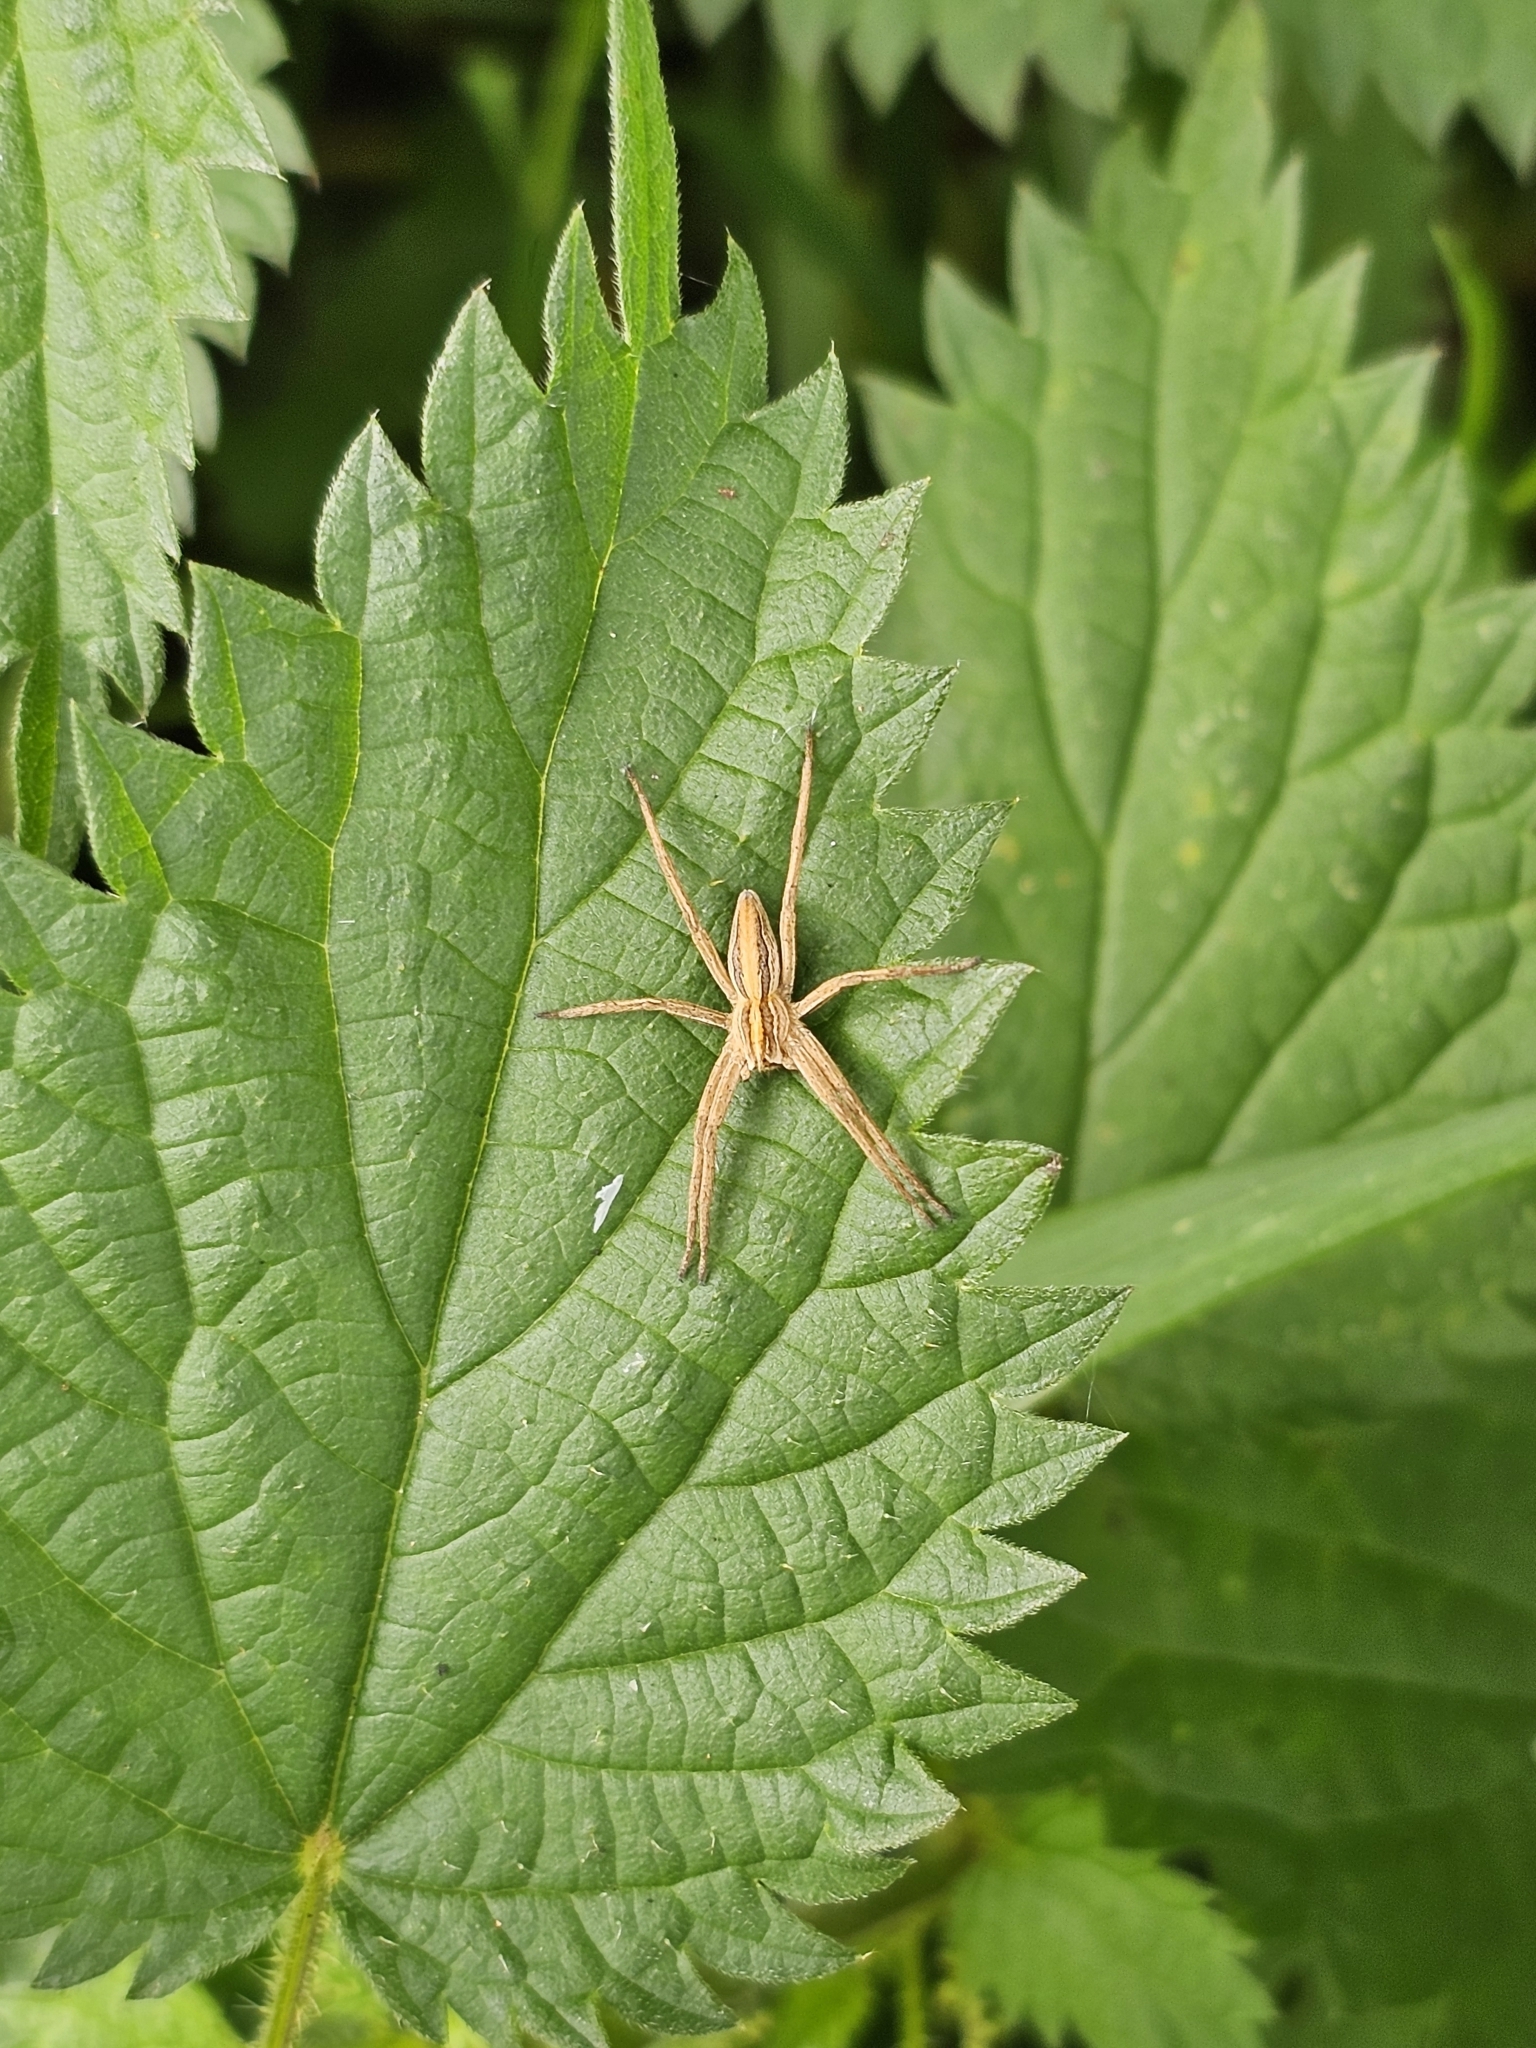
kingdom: Animalia
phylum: Arthropoda
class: Arachnida
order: Araneae
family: Pisauridae
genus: Pisaura
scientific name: Pisaura mirabilis
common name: Tent spider
